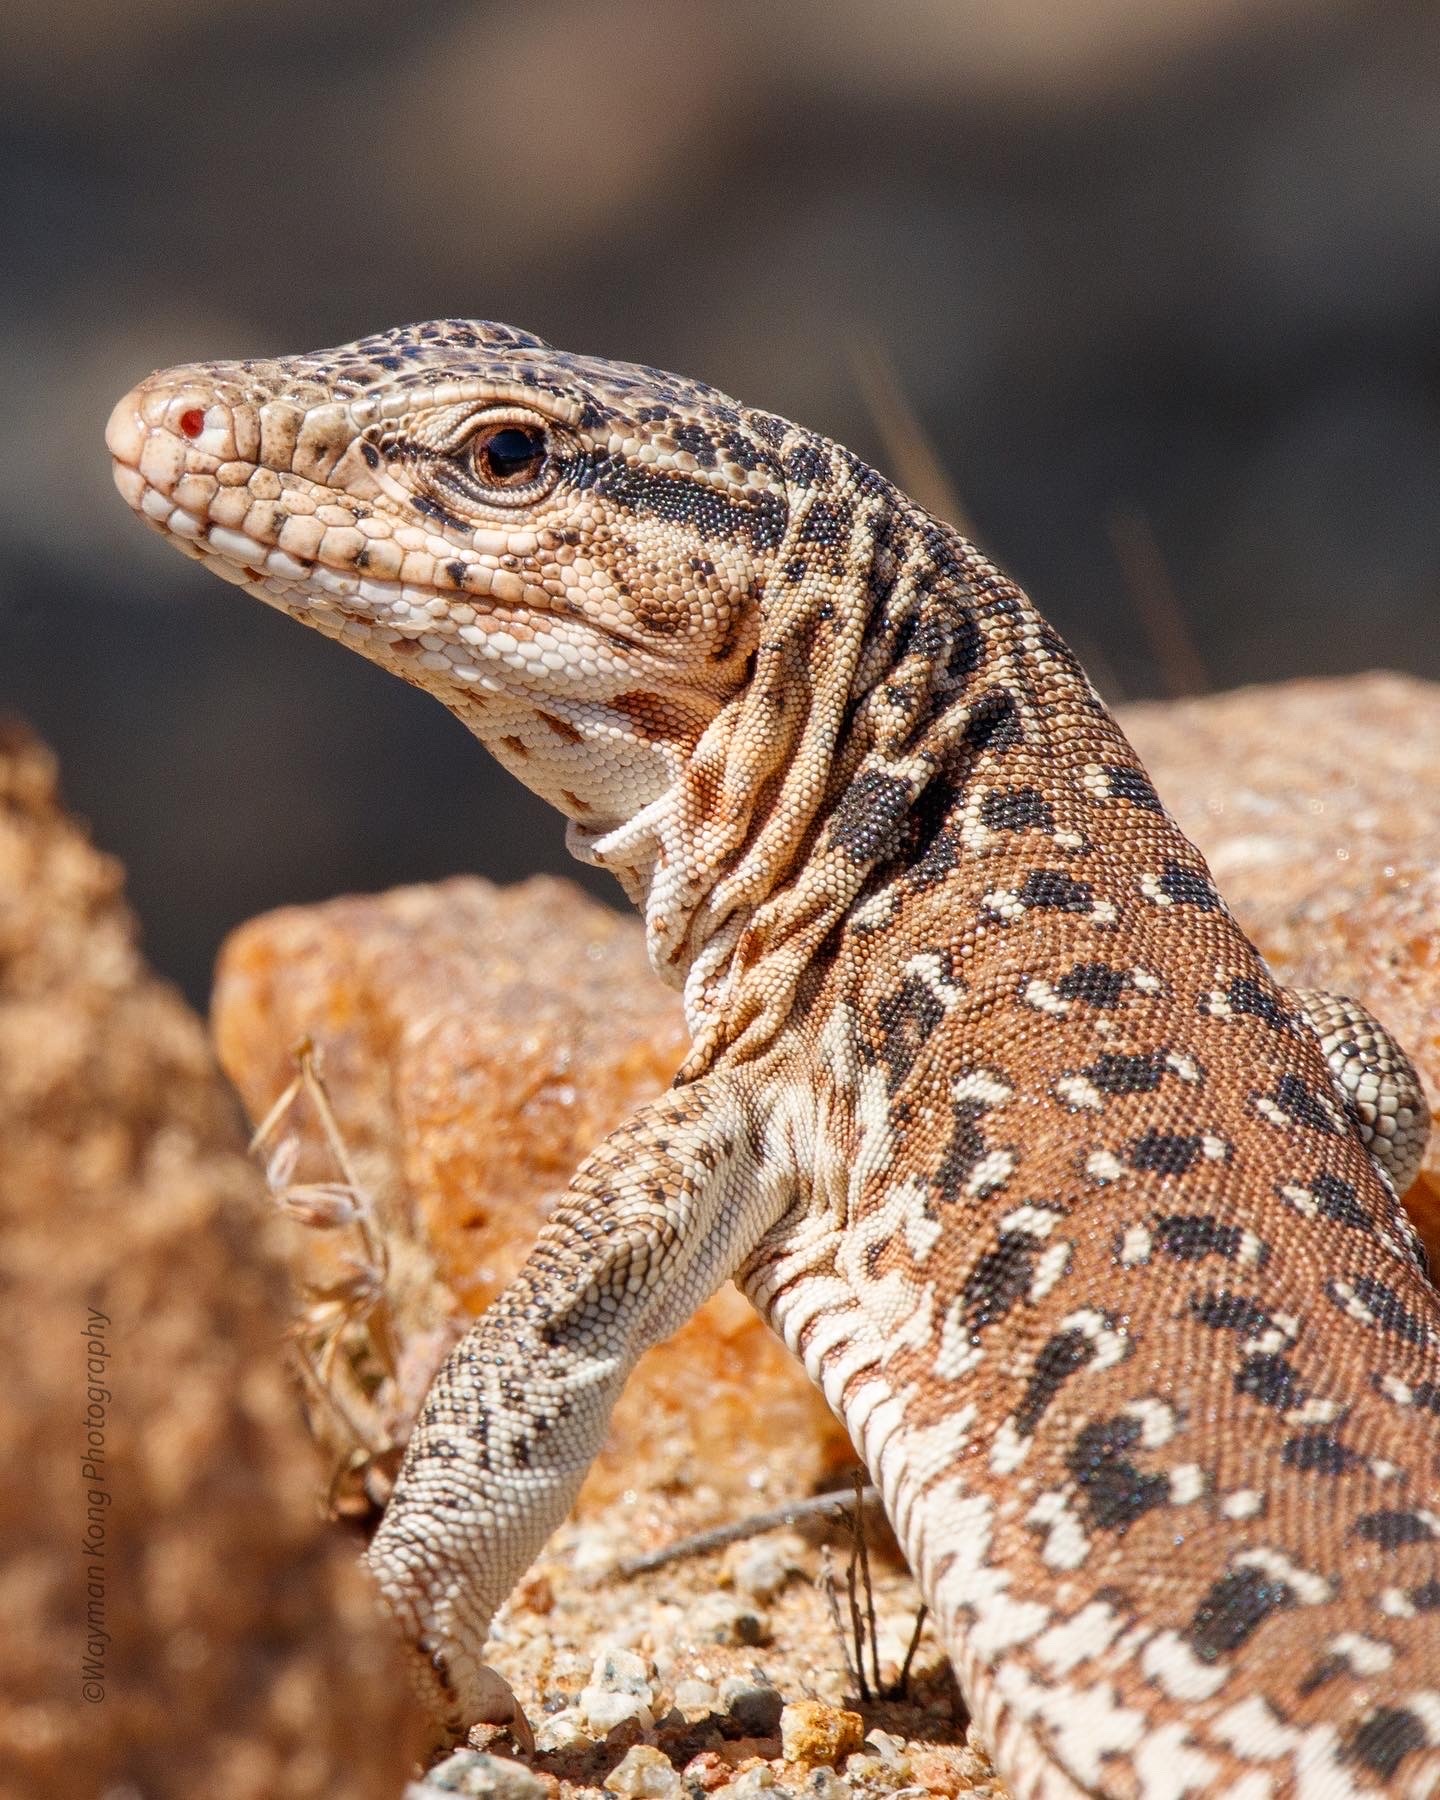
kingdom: Animalia
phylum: Chordata
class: Squamata
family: Teiidae
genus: Callopistes
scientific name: Callopistes maculatus
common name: Spotted false monitor
